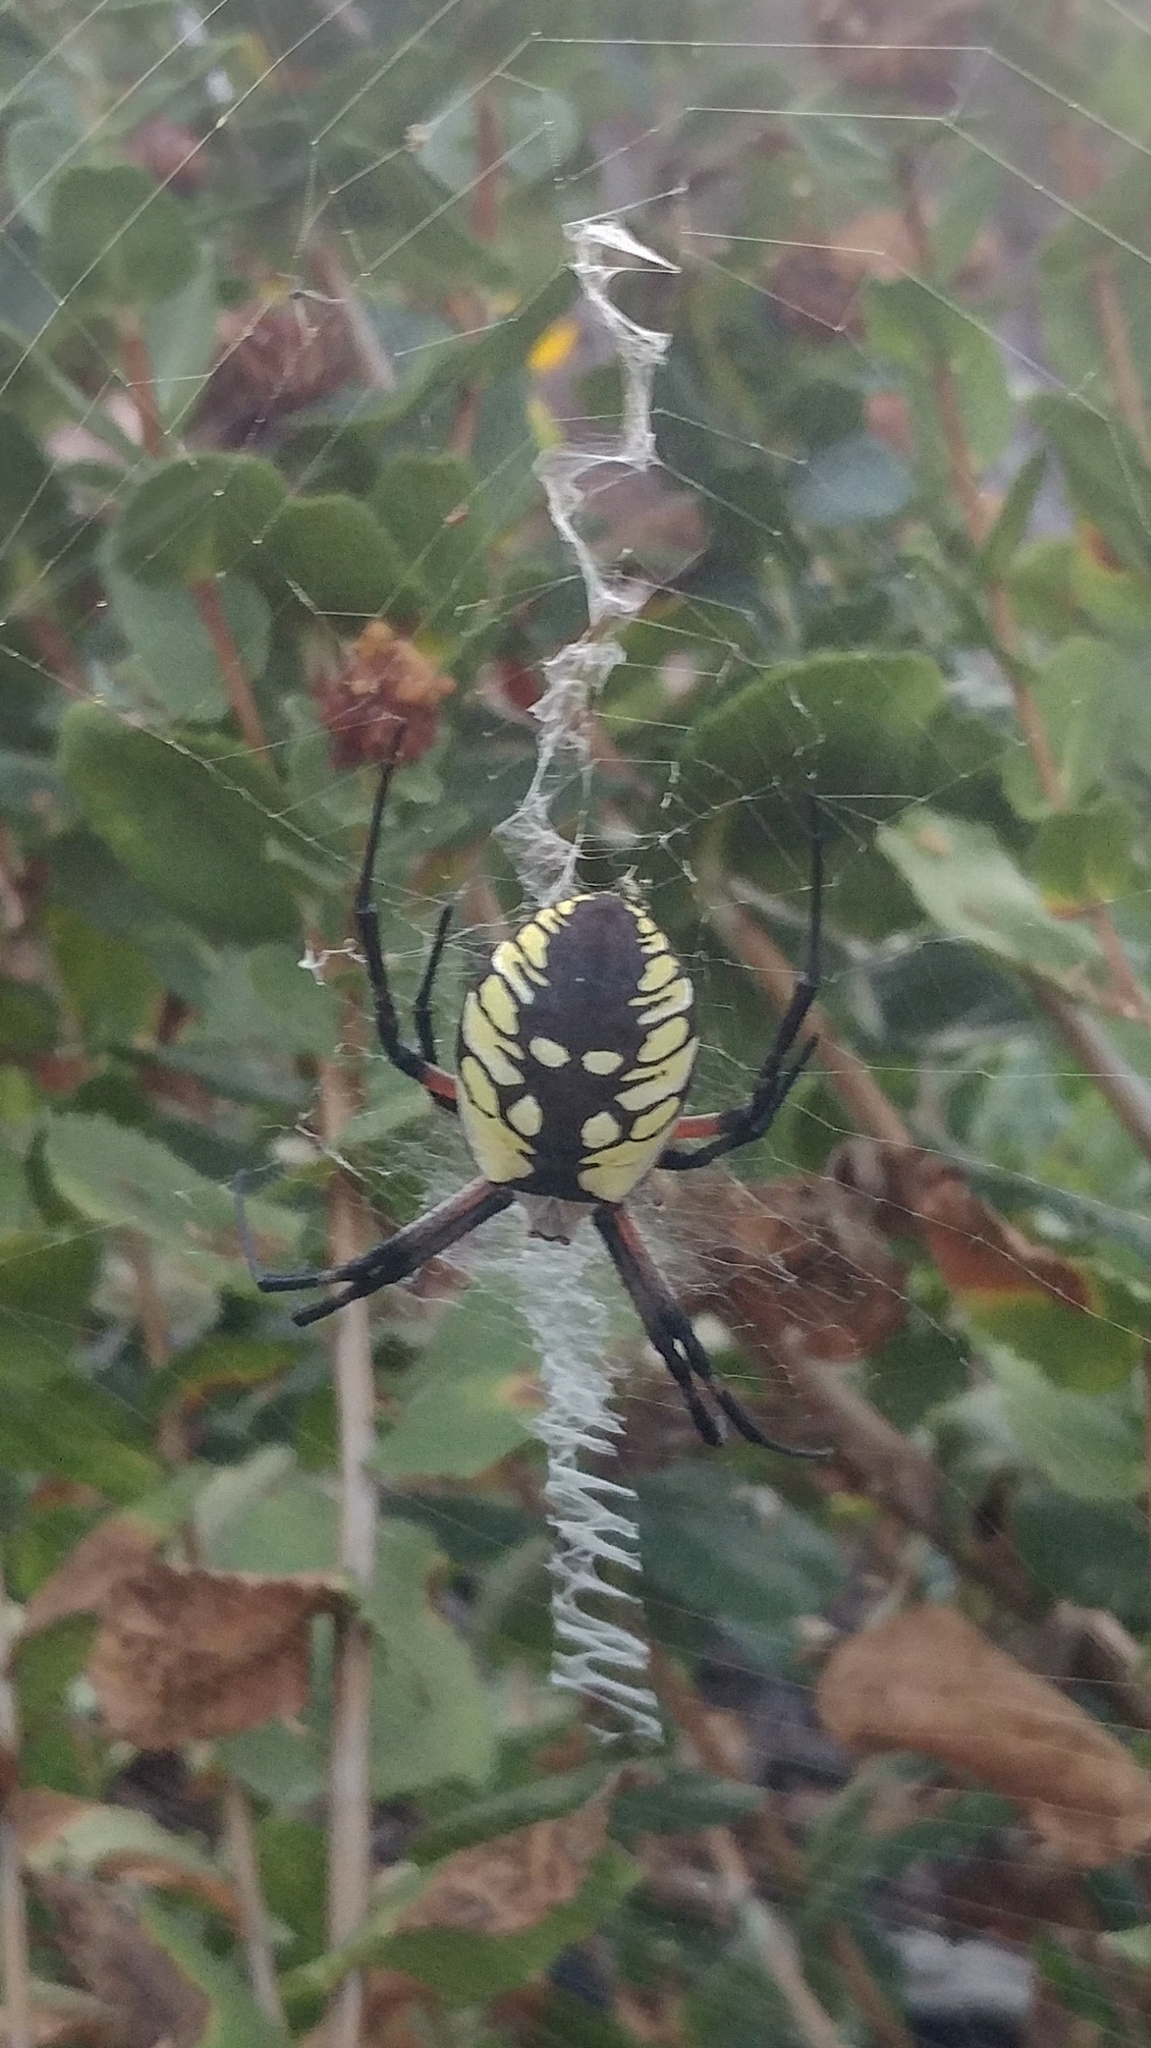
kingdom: Animalia
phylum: Arthropoda
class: Arachnida
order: Araneae
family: Araneidae
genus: Argiope
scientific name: Argiope aurantia
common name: Orb weavers
